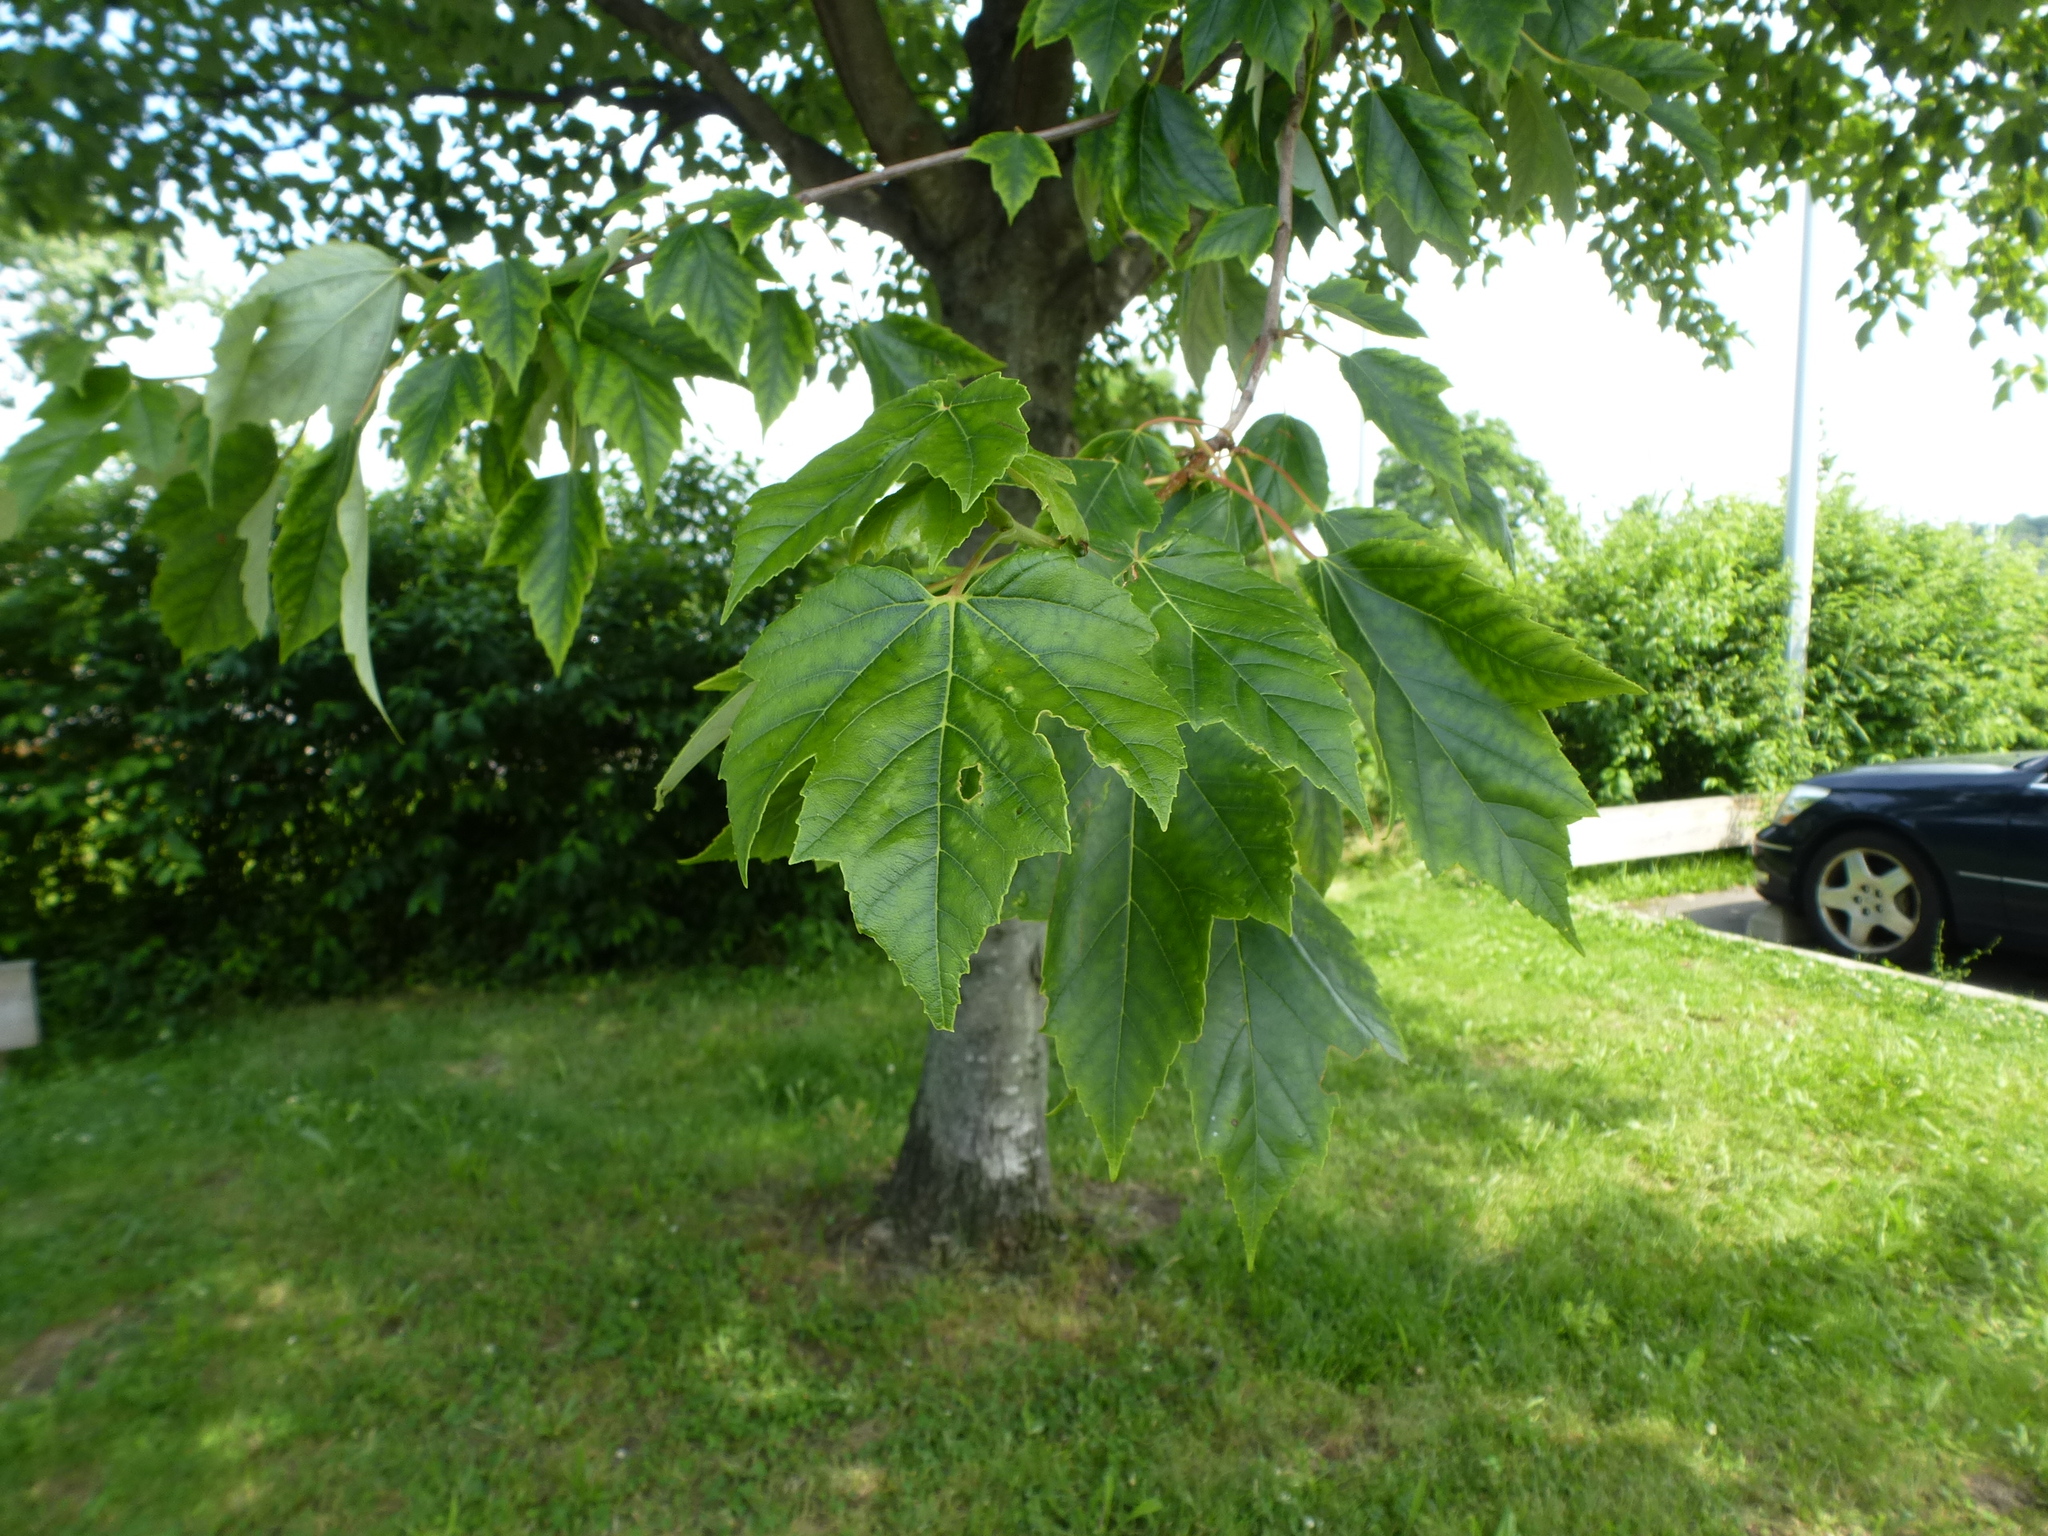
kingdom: Plantae
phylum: Tracheophyta
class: Magnoliopsida
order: Sapindales
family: Sapindaceae
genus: Acer
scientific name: Acer rubrum
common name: Red maple
